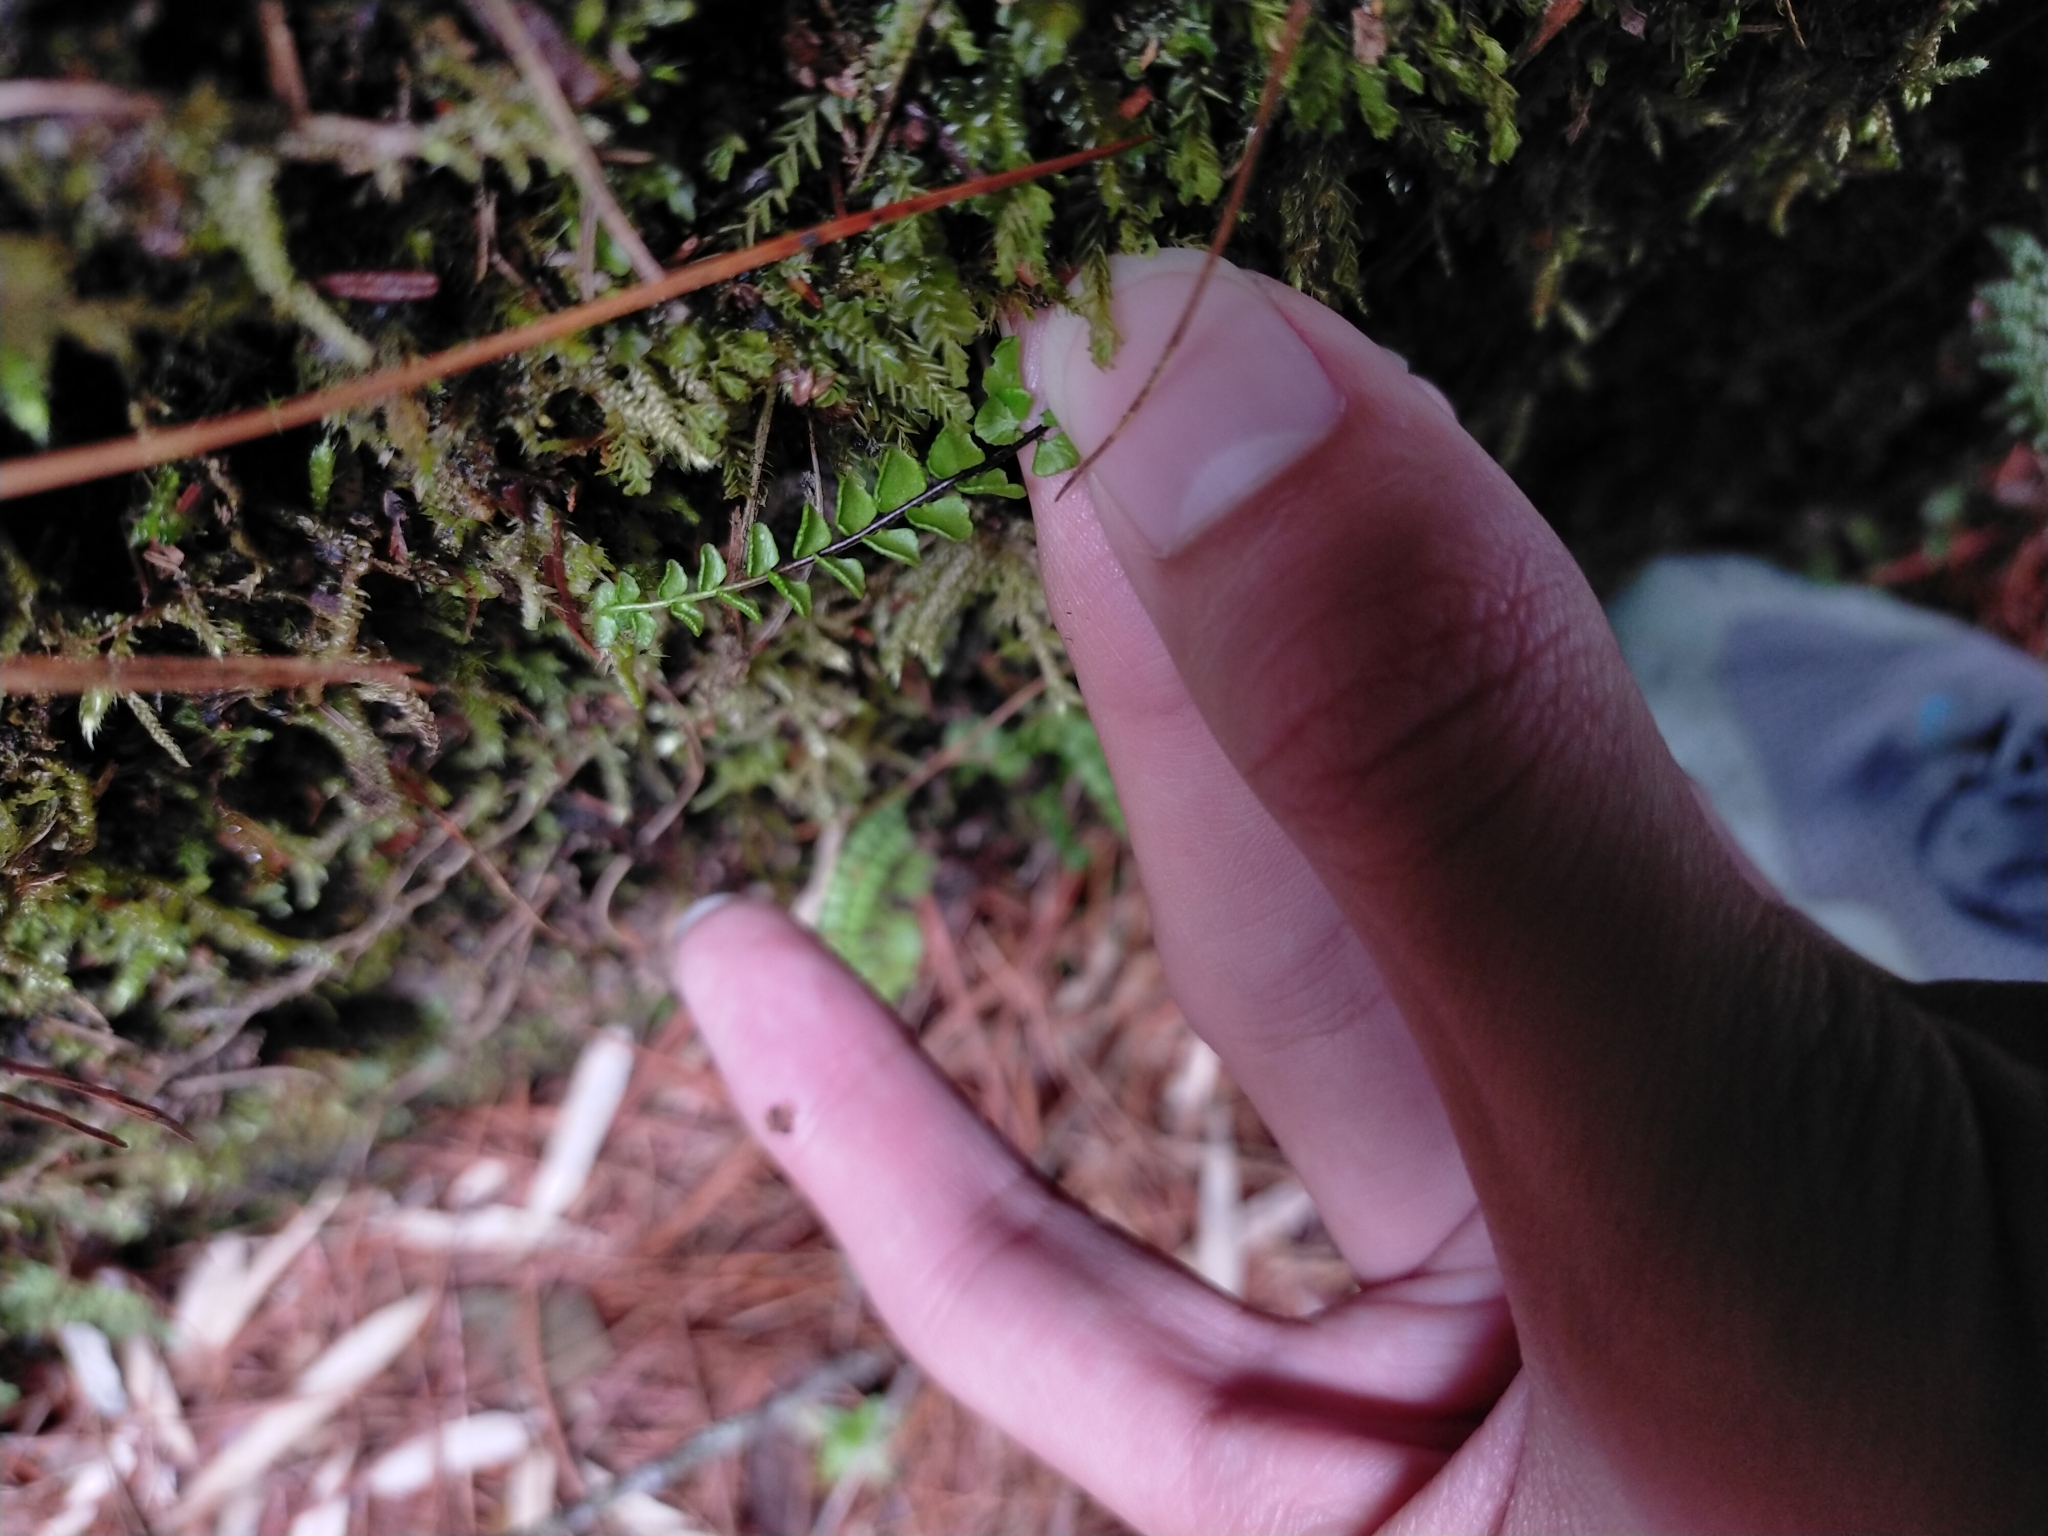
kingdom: Plantae
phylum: Tracheophyta
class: Polypodiopsida
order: Polypodiales
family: Aspleniaceae
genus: Asplenium
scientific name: Asplenium trichomanes
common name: Maidenhair spleenwort
